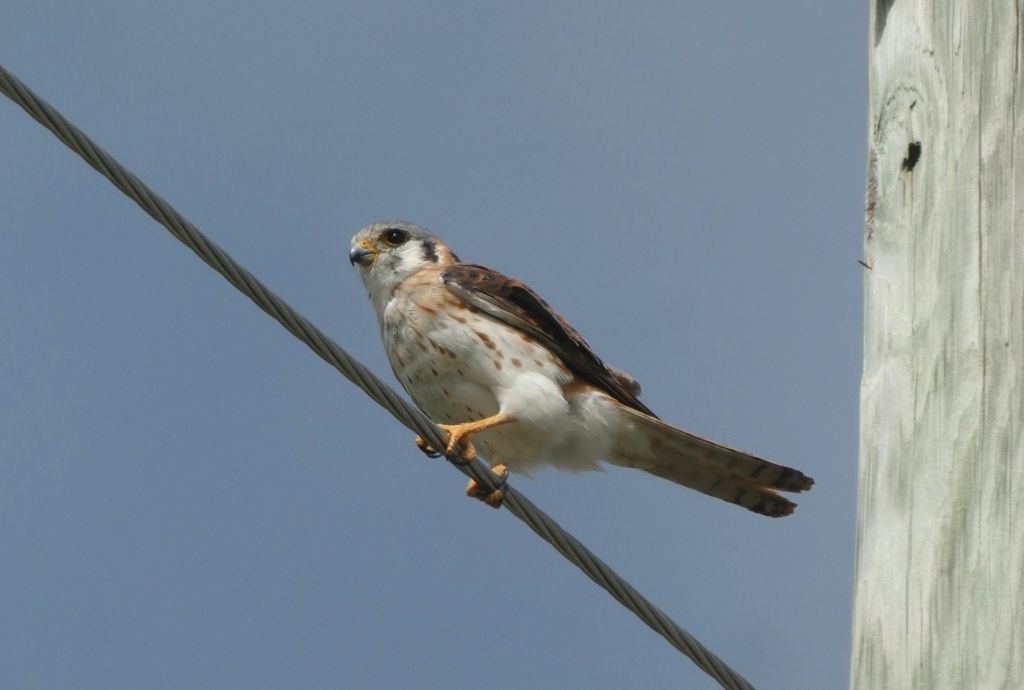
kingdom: Animalia
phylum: Chordata
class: Aves
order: Falconiformes
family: Falconidae
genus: Falco
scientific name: Falco sparverius
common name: American kestrel
